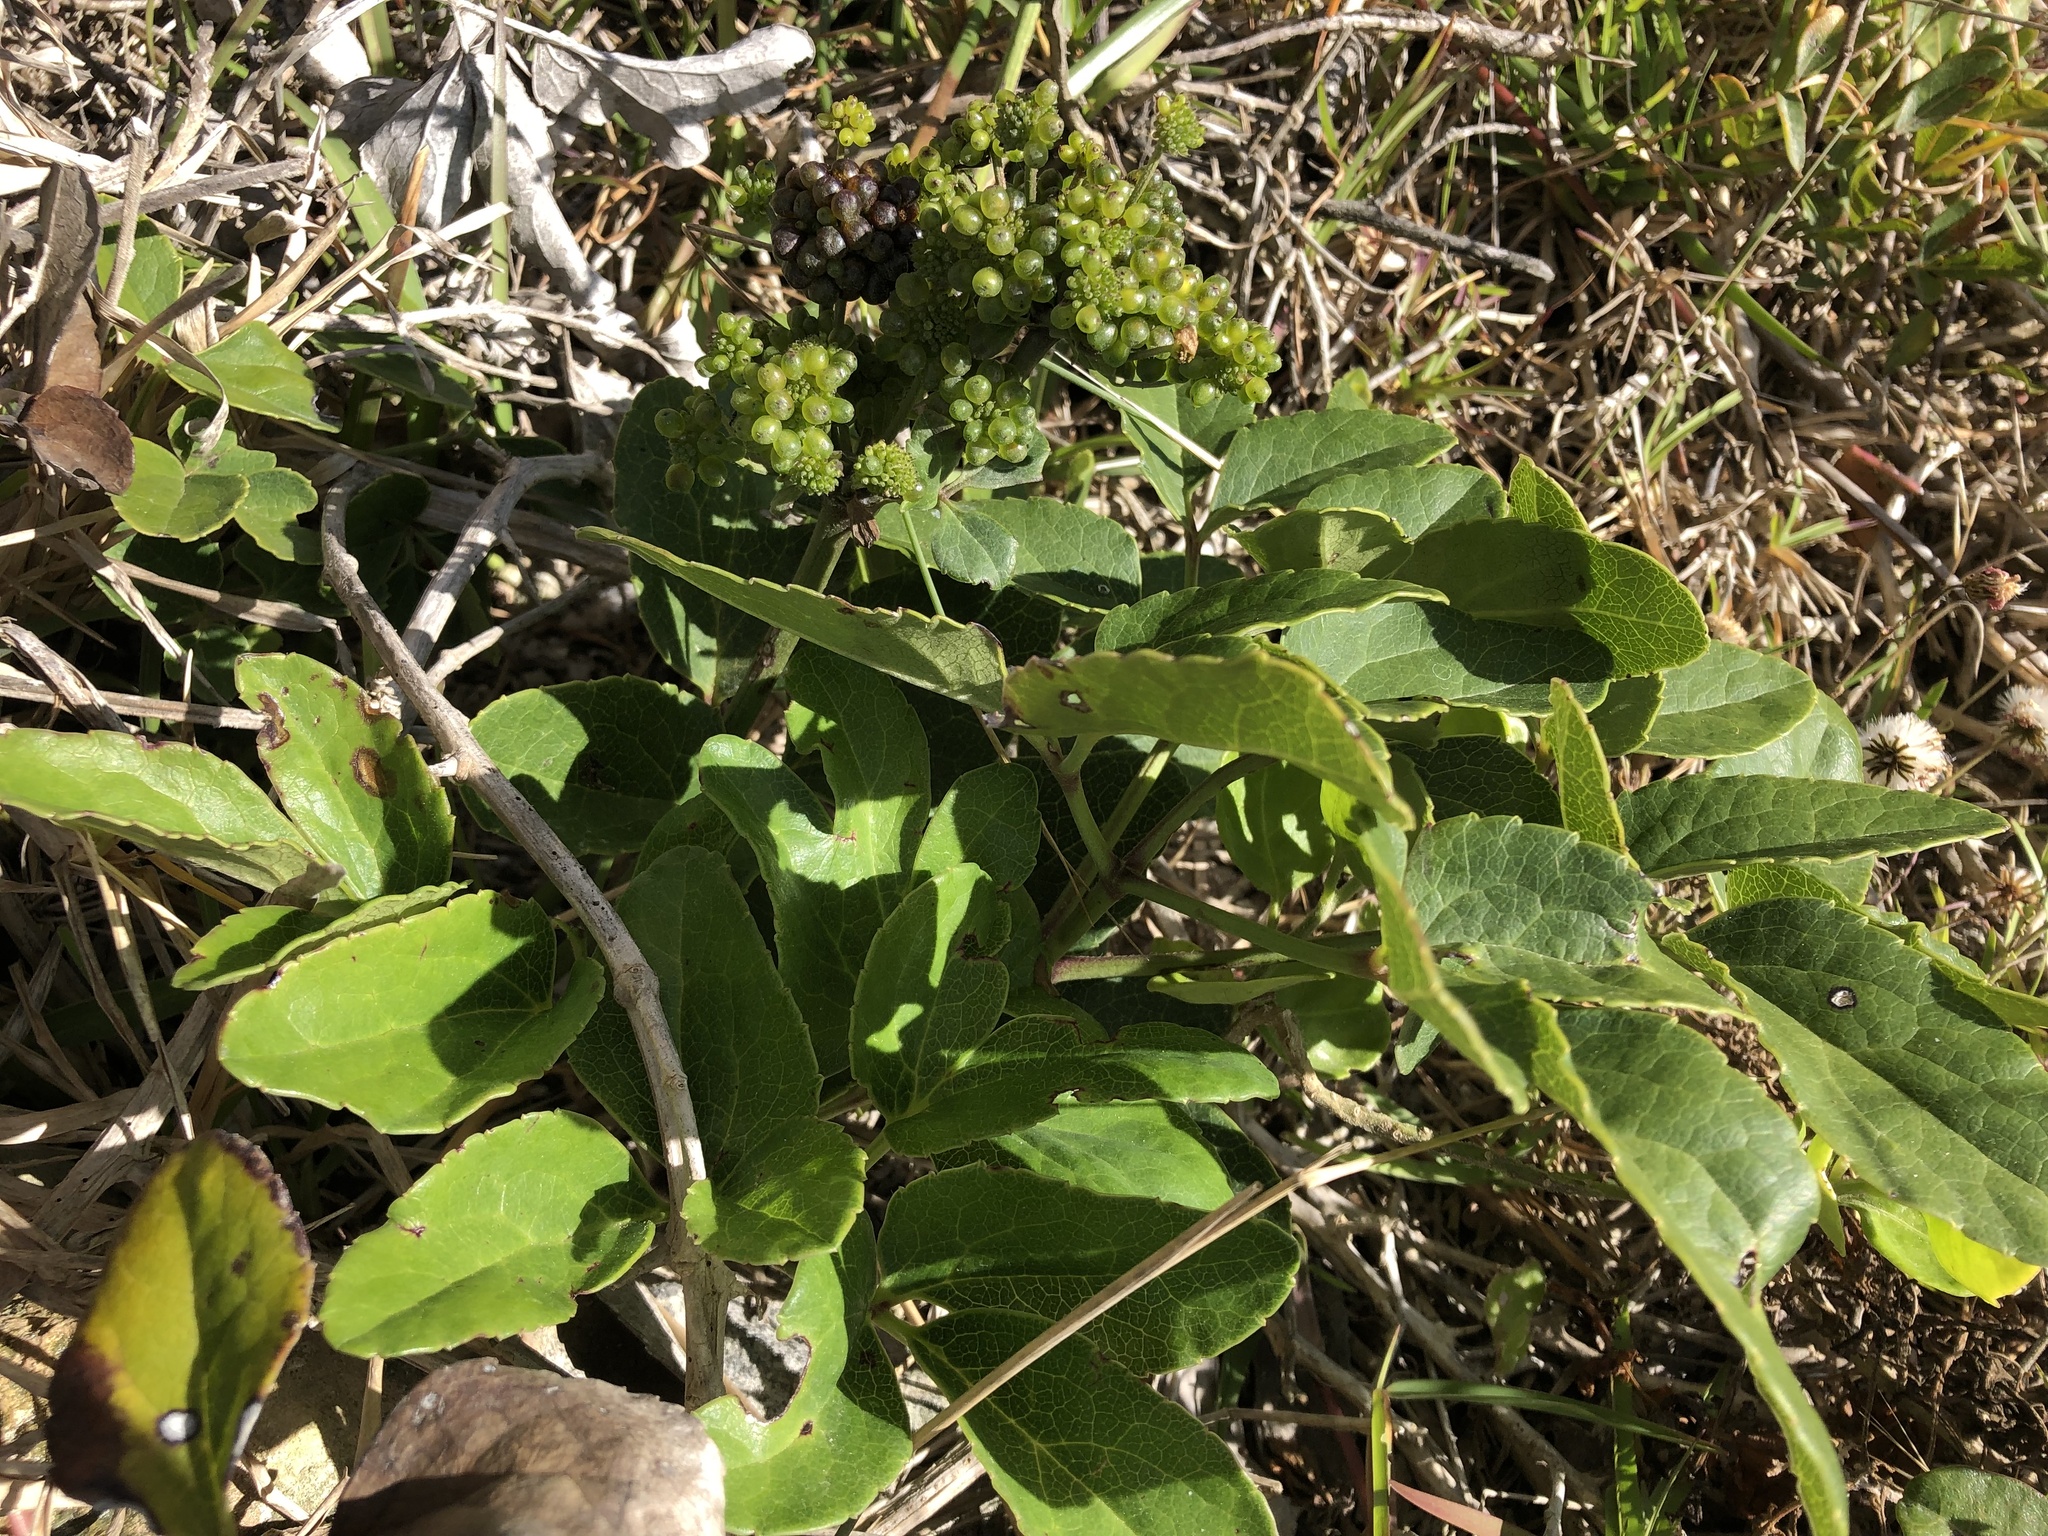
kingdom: Plantae
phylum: Tracheophyta
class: Magnoliopsida
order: Ranunculales
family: Ranunculaceae
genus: Knowltonia
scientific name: Knowltonia vesicatoria
